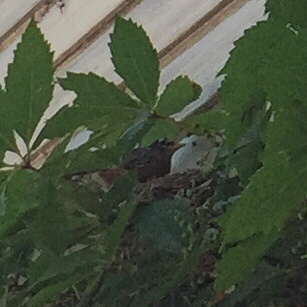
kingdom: Animalia
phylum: Chordata
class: Aves
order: Passeriformes
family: Turdidae
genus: Turdus
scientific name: Turdus migratorius
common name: American robin
